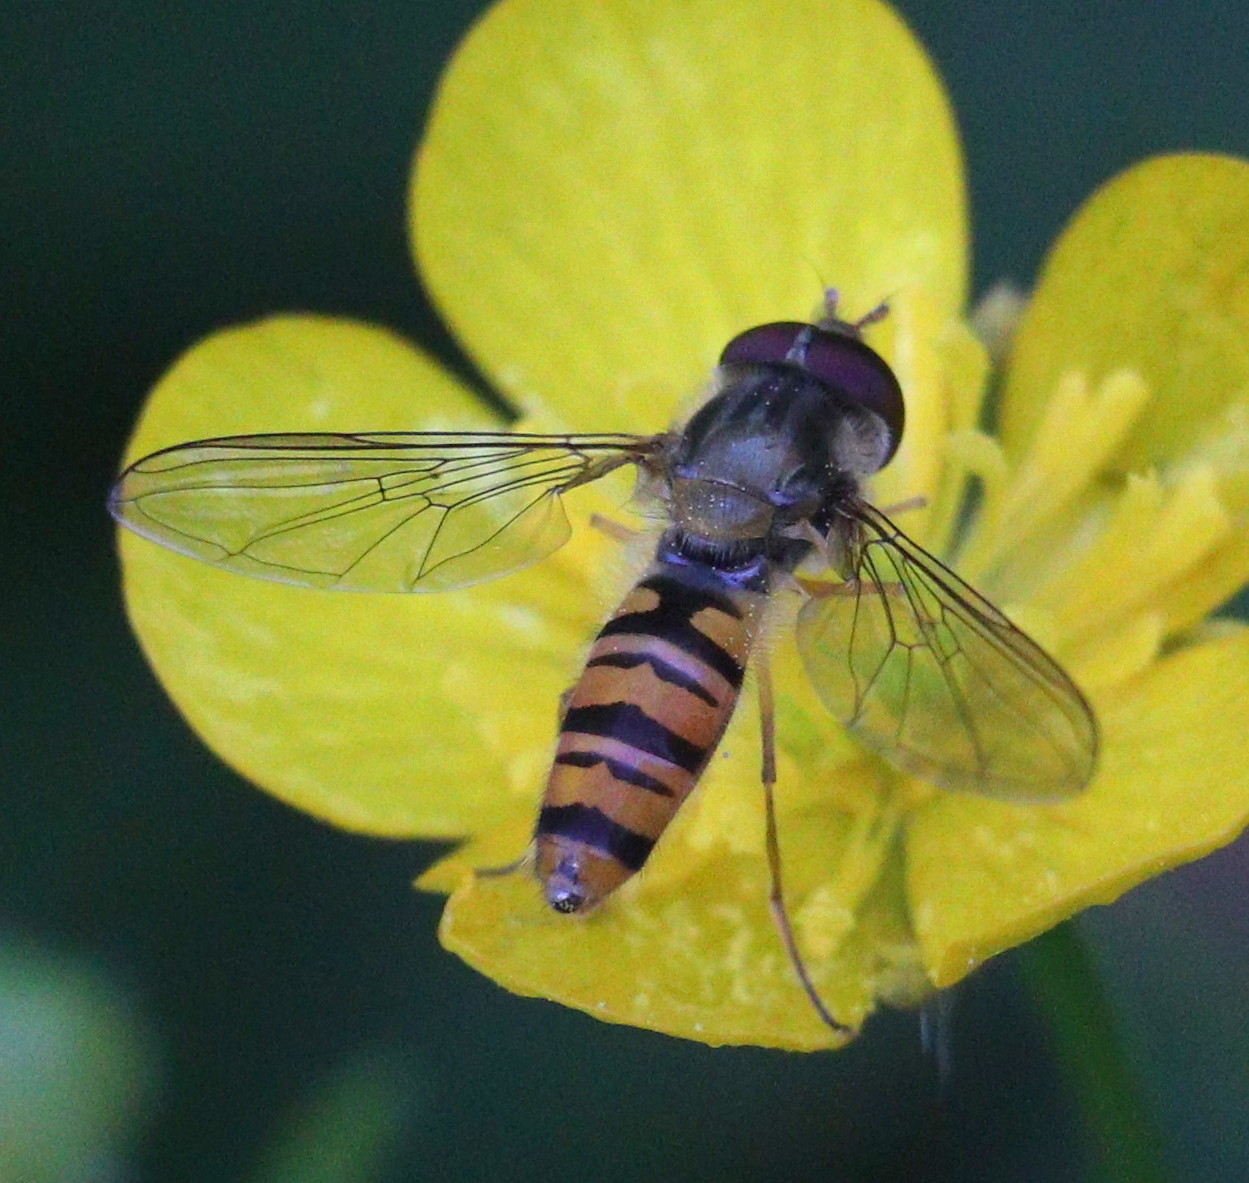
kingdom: Animalia
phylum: Arthropoda
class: Insecta
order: Diptera
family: Syrphidae
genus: Episyrphus
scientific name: Episyrphus balteatus
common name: Marmalade hoverfly
